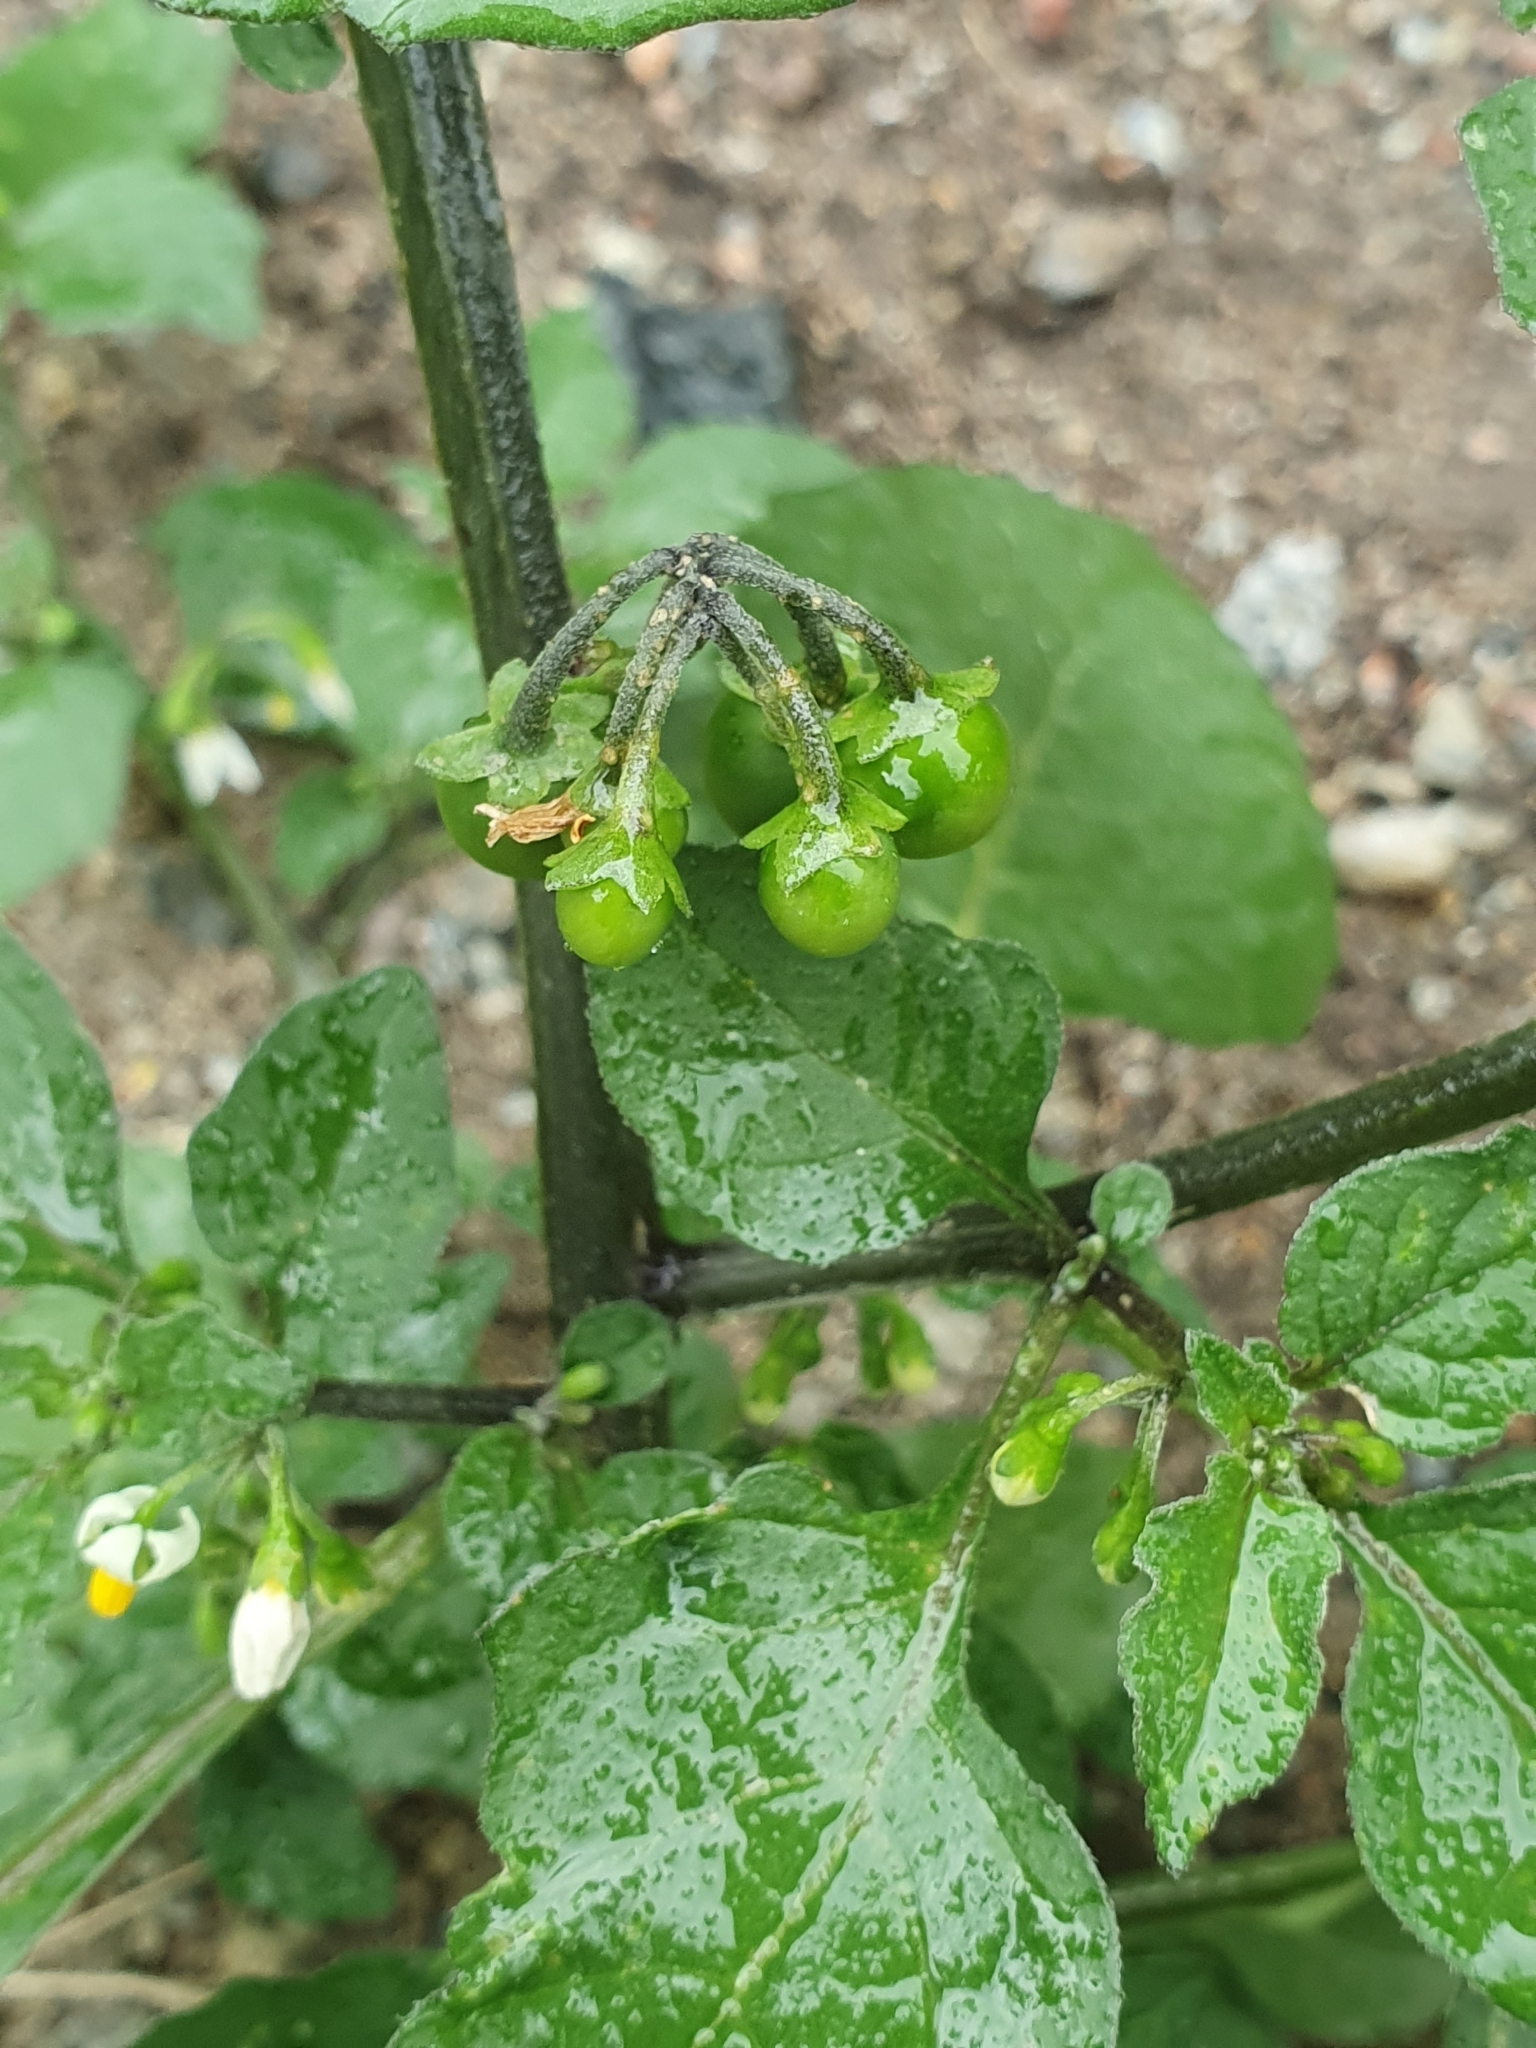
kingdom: Plantae
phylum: Tracheophyta
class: Magnoliopsida
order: Solanales
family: Solanaceae
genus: Solanum
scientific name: Solanum nigrum
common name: Black nightshade
